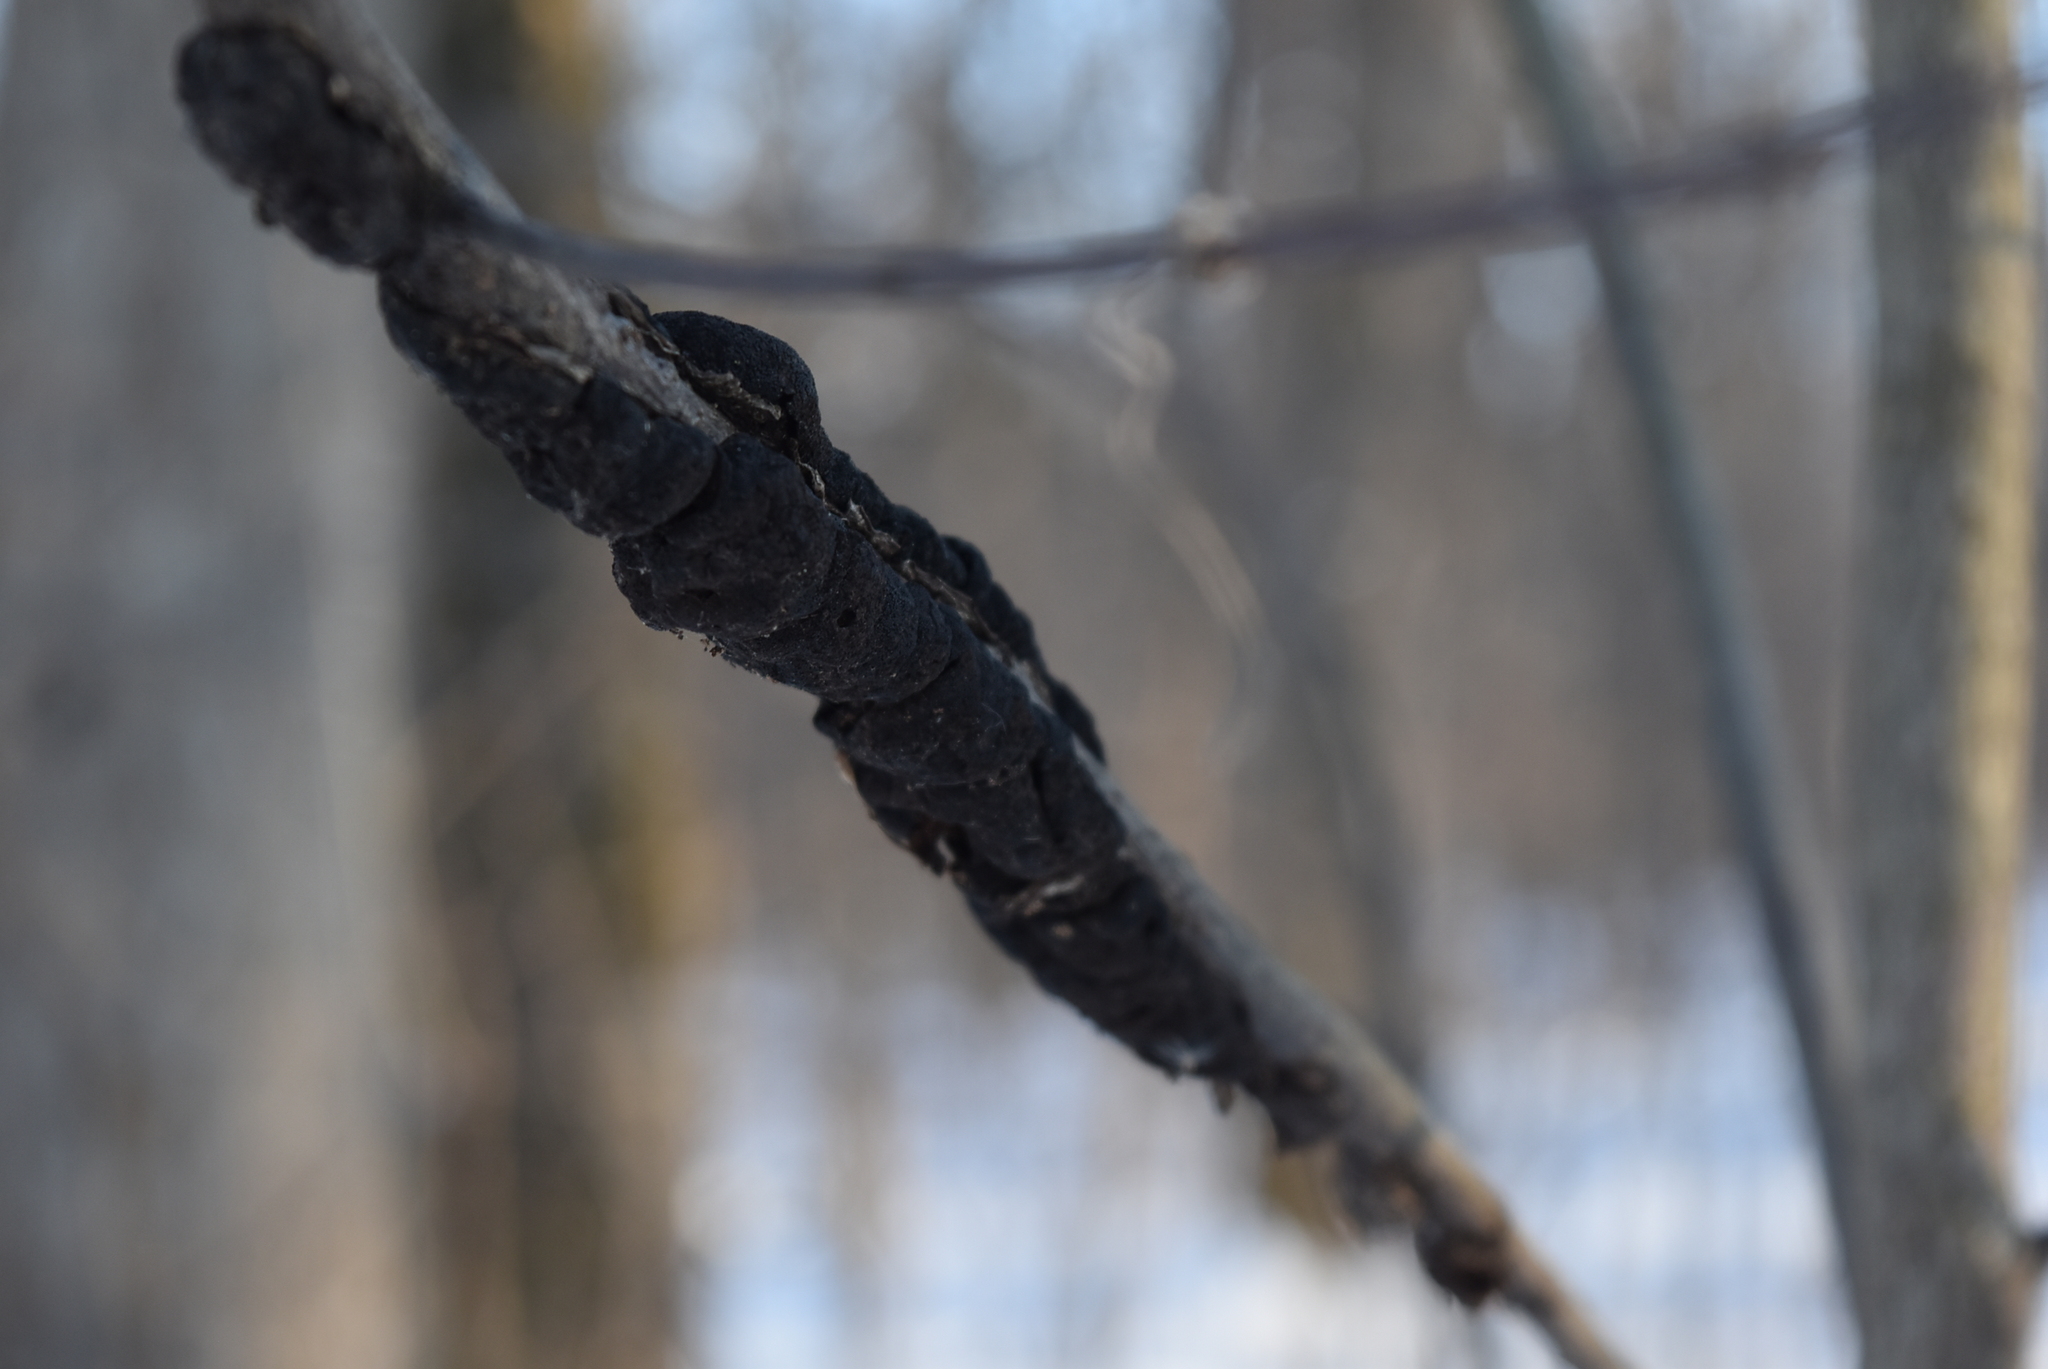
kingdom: Fungi
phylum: Ascomycota
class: Dothideomycetes
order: Venturiales
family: Venturiaceae
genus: Apiosporina
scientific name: Apiosporina morbosa
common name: Black knot
